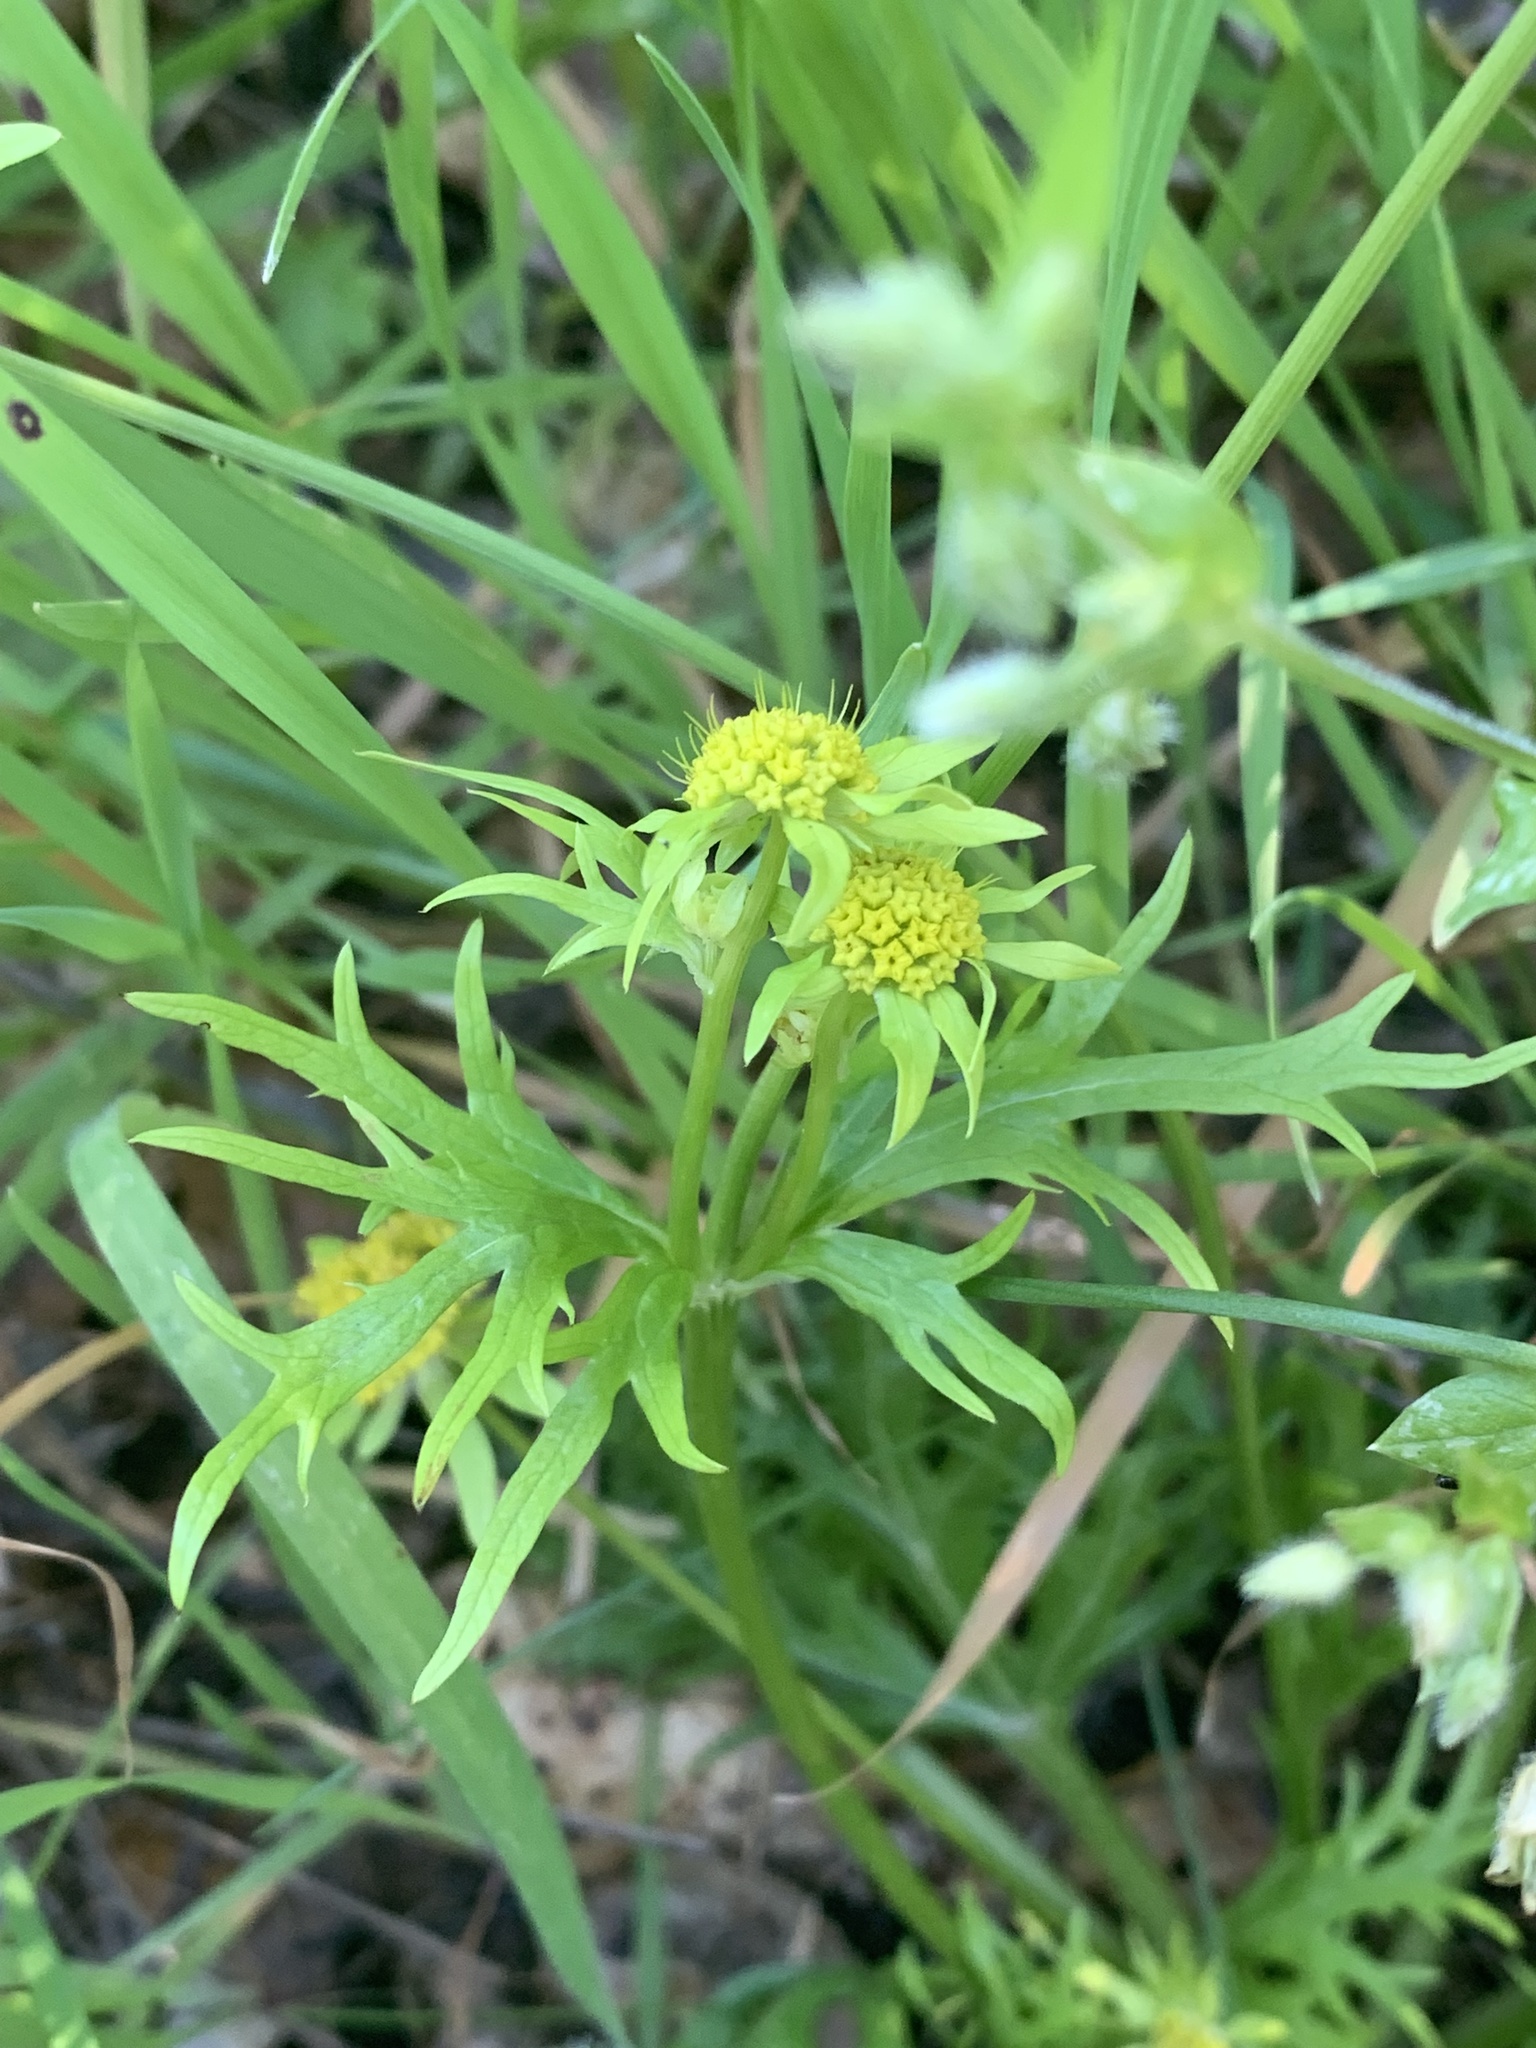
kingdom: Plantae
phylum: Tracheophyta
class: Magnoliopsida
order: Apiales
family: Apiaceae
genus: Sanicula
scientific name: Sanicula arctopoides
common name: Footsteps-of-spring
